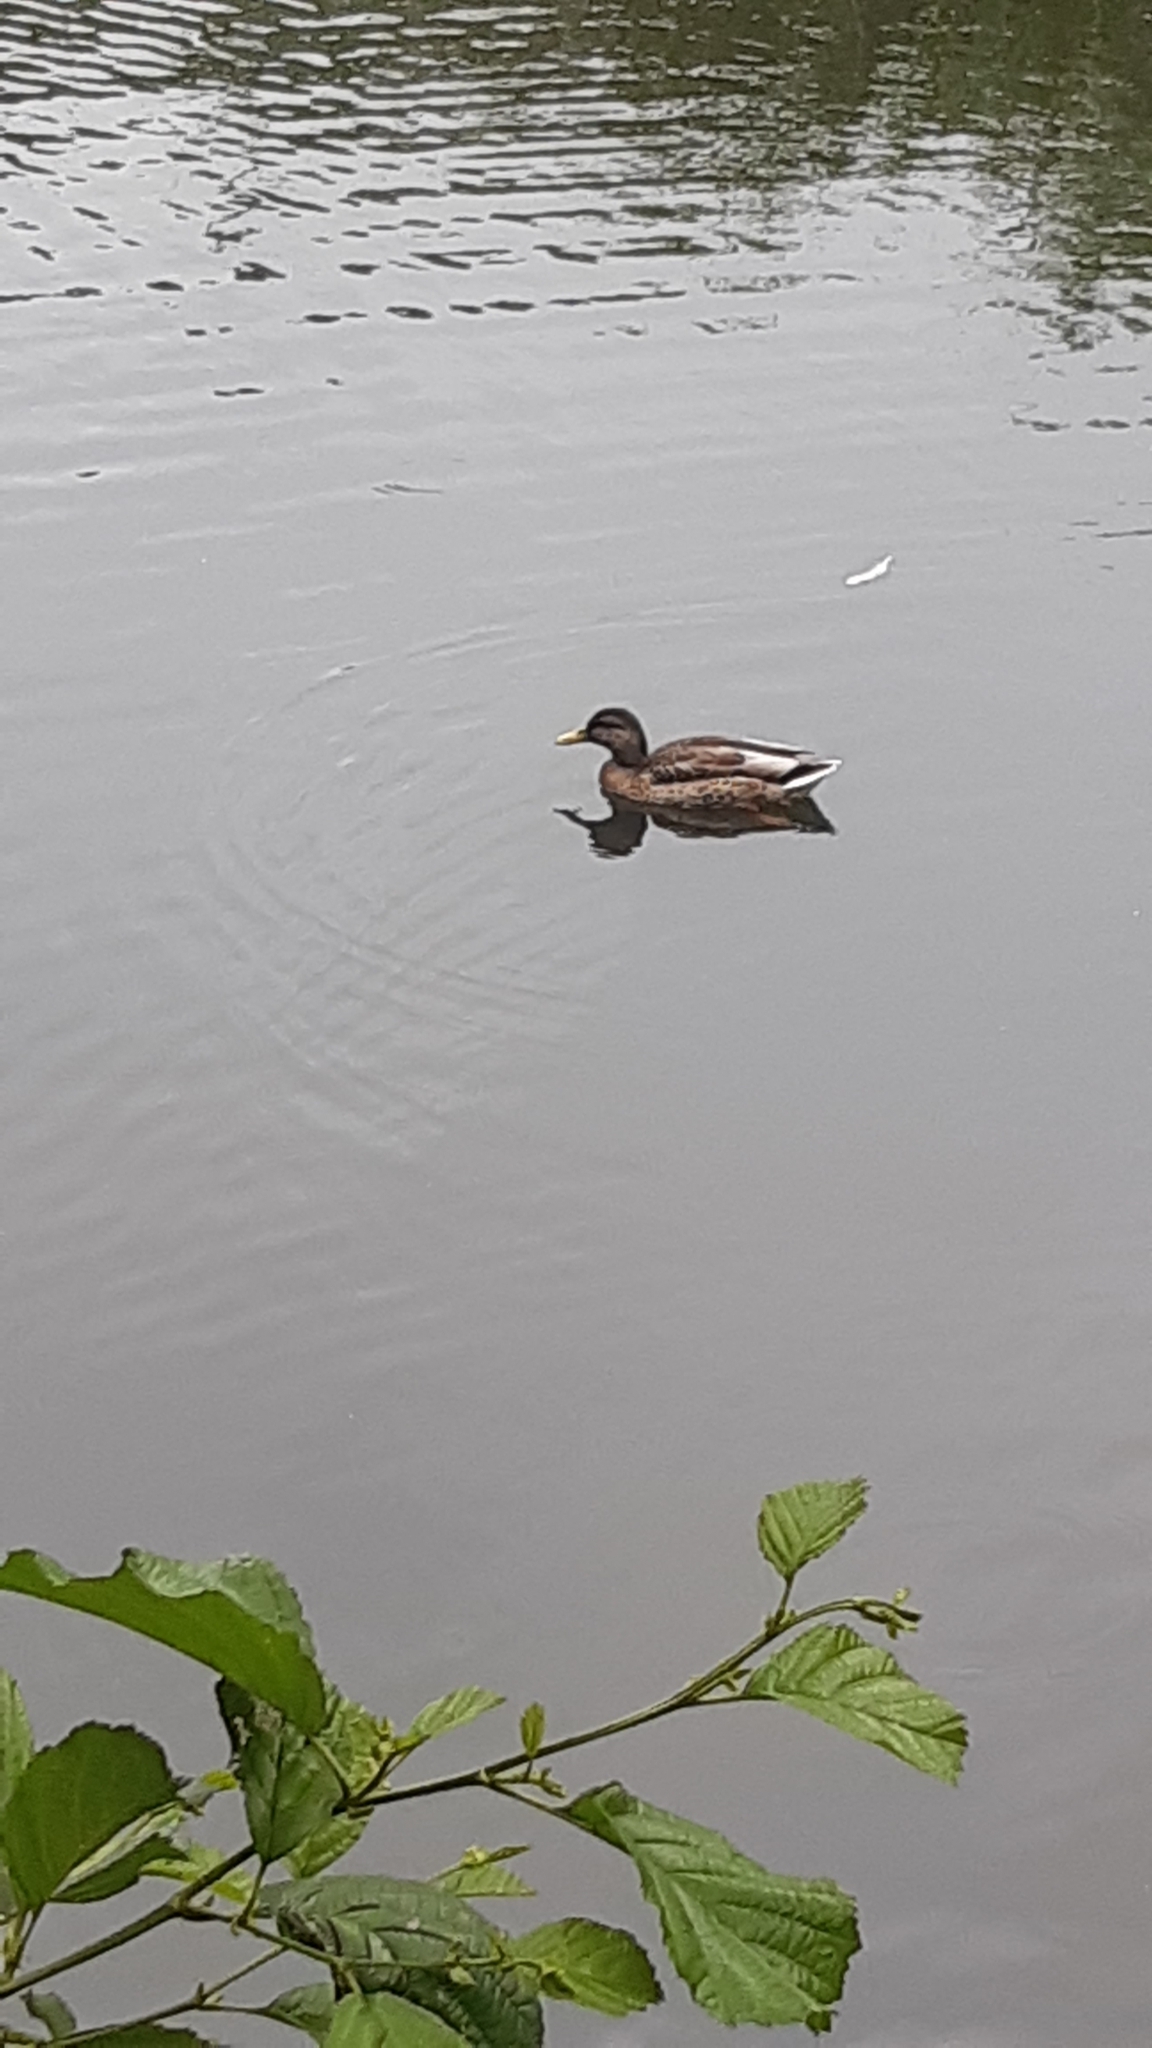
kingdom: Animalia
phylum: Chordata
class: Aves
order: Anseriformes
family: Anatidae
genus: Anas
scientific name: Anas platyrhynchos
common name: Mallard
